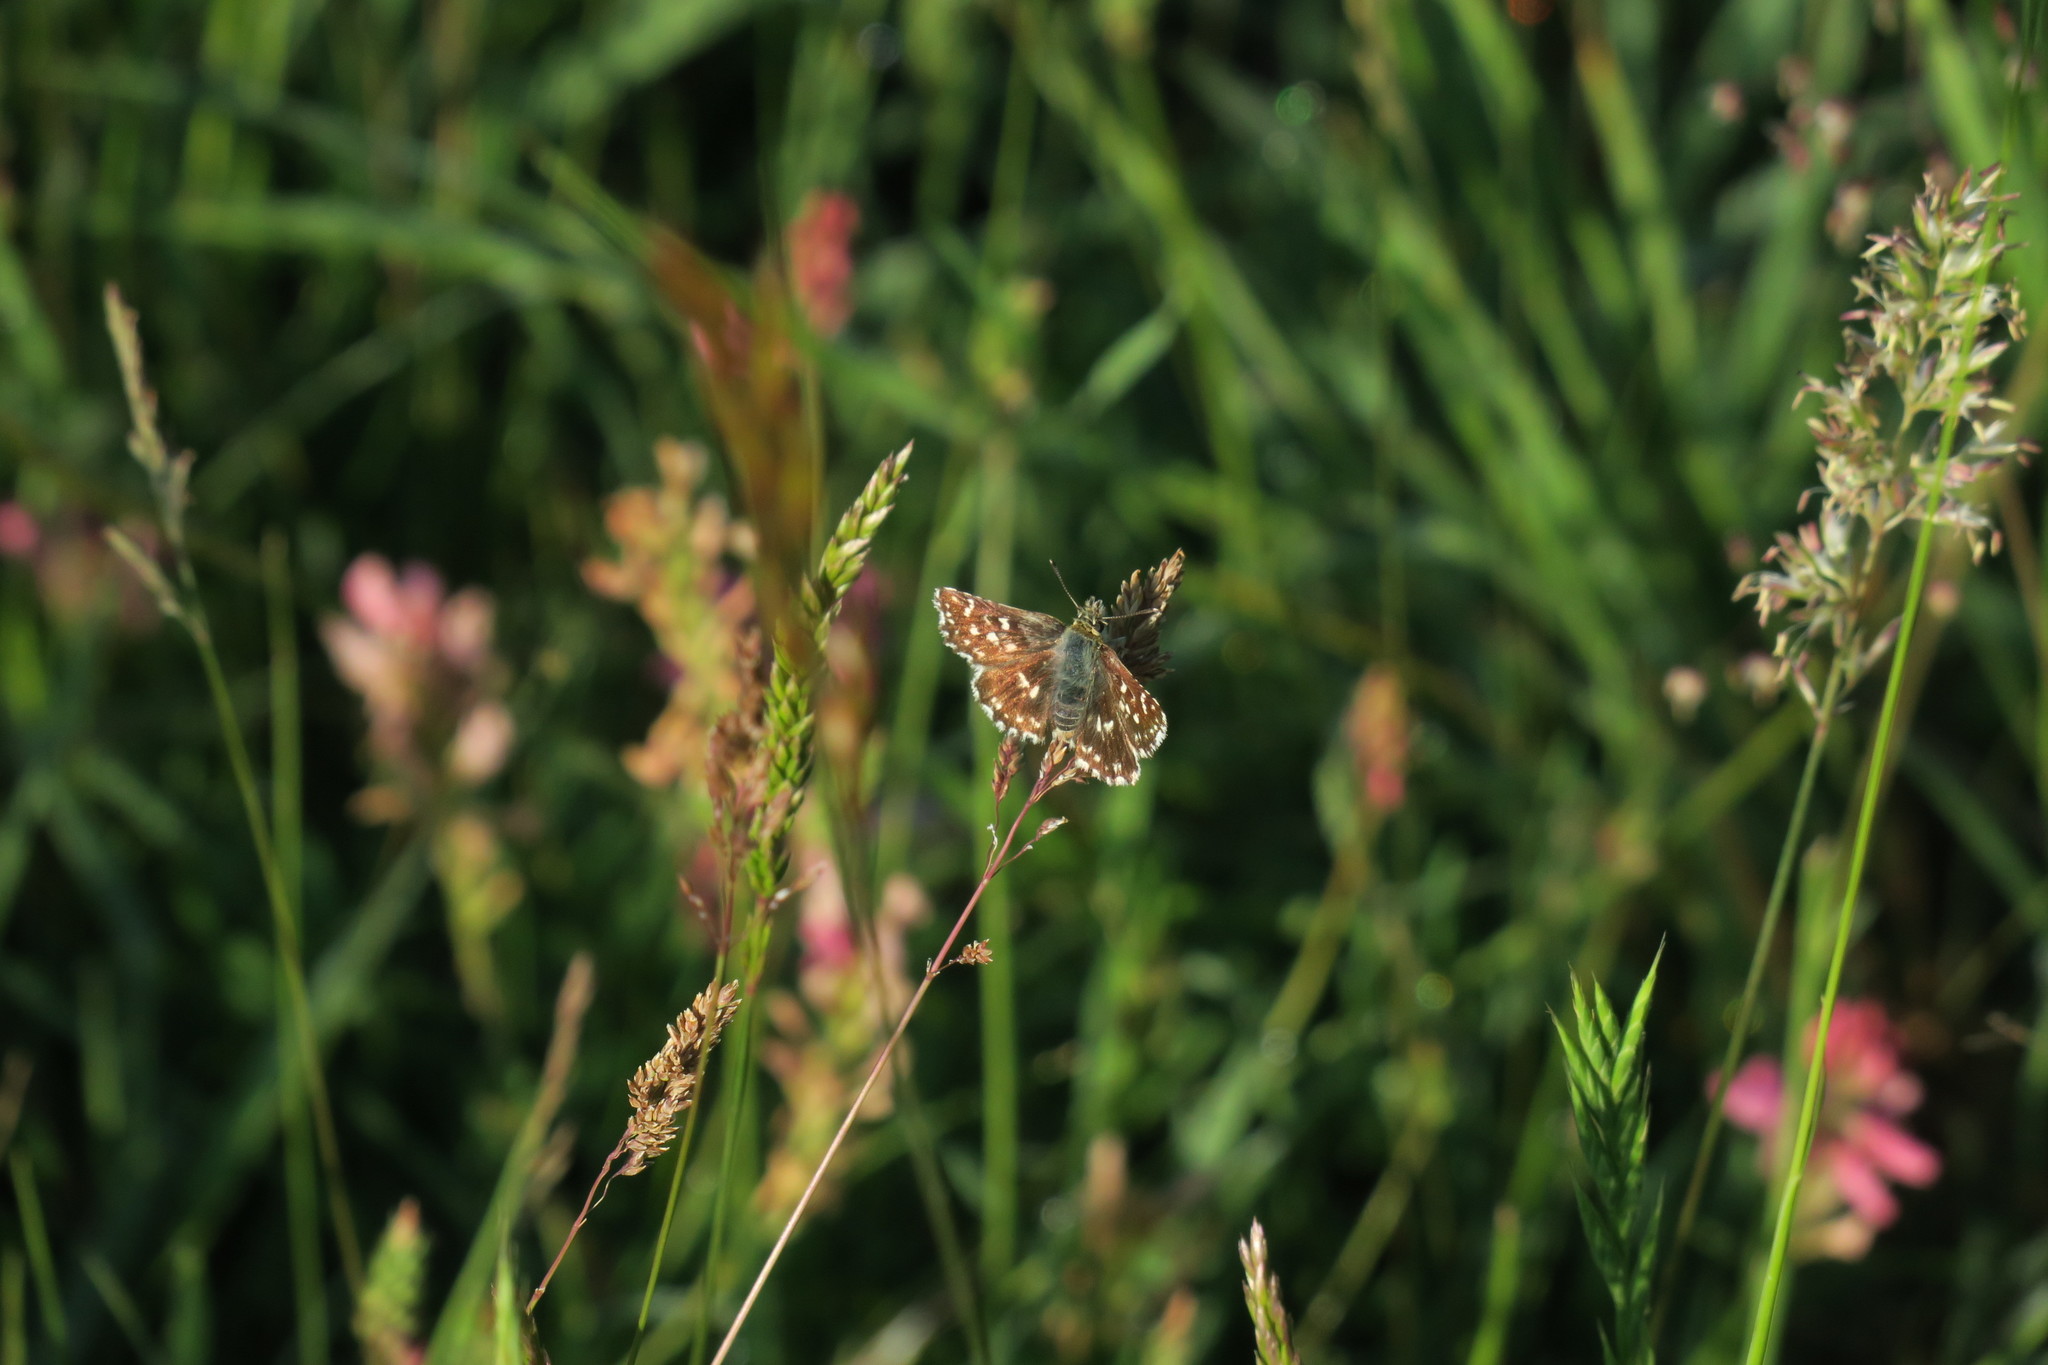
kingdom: Animalia
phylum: Arthropoda
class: Insecta
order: Lepidoptera
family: Hesperiidae
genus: Spialia
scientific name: Spialia sertorius
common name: Red underwing skipper
